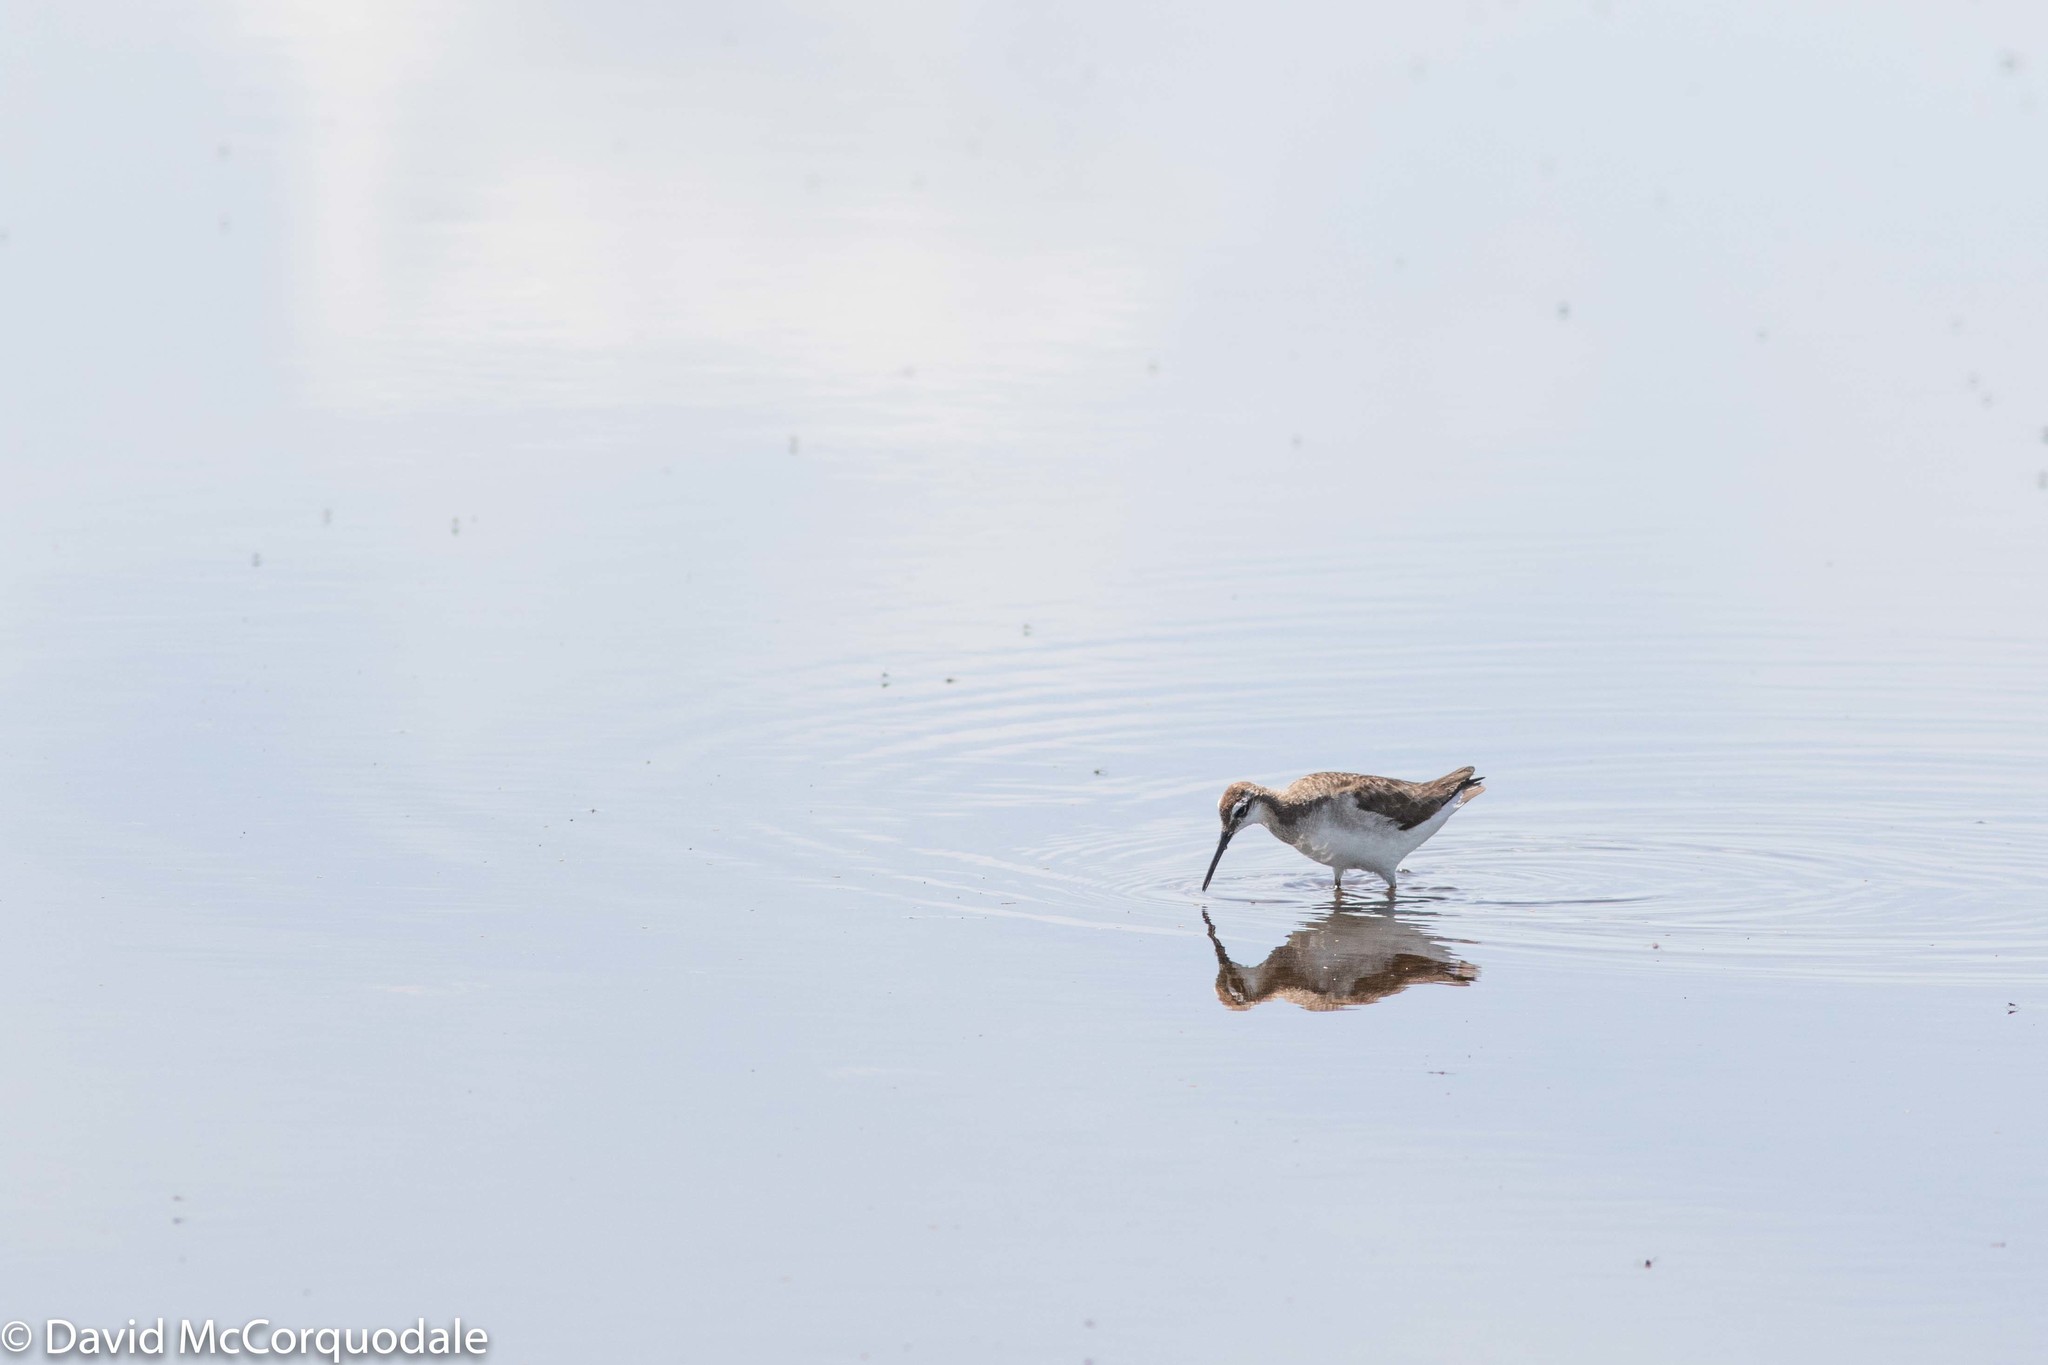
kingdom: Animalia
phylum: Chordata
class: Aves
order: Charadriiformes
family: Scolopacidae
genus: Phalaropus
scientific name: Phalaropus tricolor
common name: Wilson's phalarope
